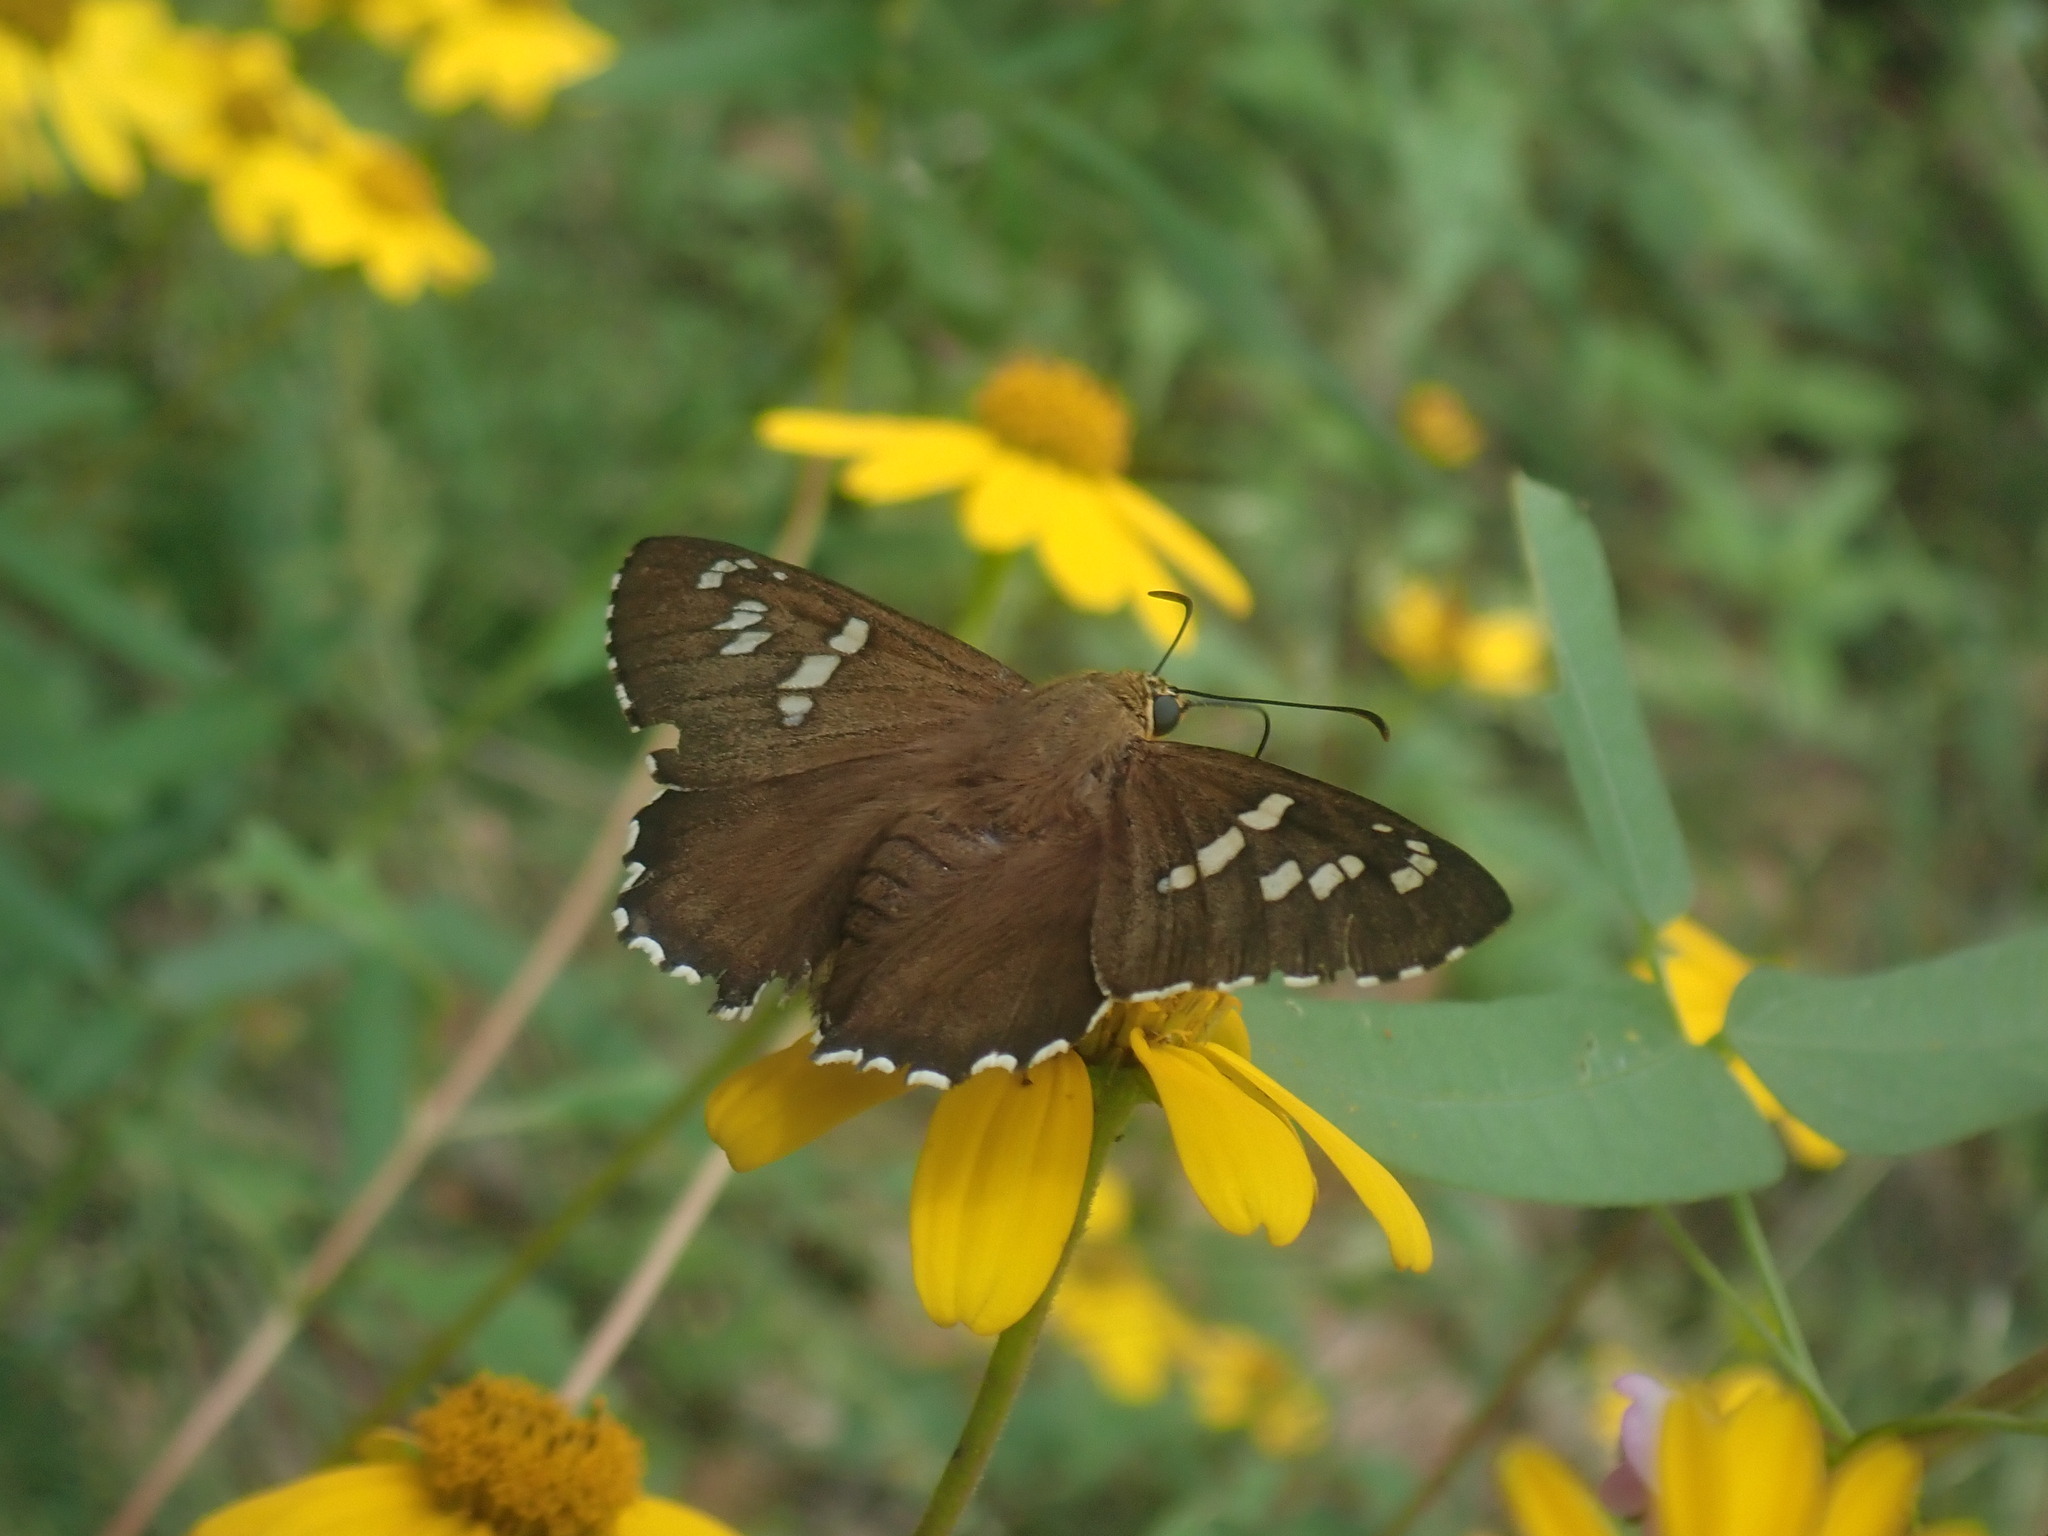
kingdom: Animalia
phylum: Arthropoda
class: Insecta
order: Lepidoptera
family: Hesperiidae
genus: Pyrrhopyge
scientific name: Pyrrhopyge araxes
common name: Dull firetip
